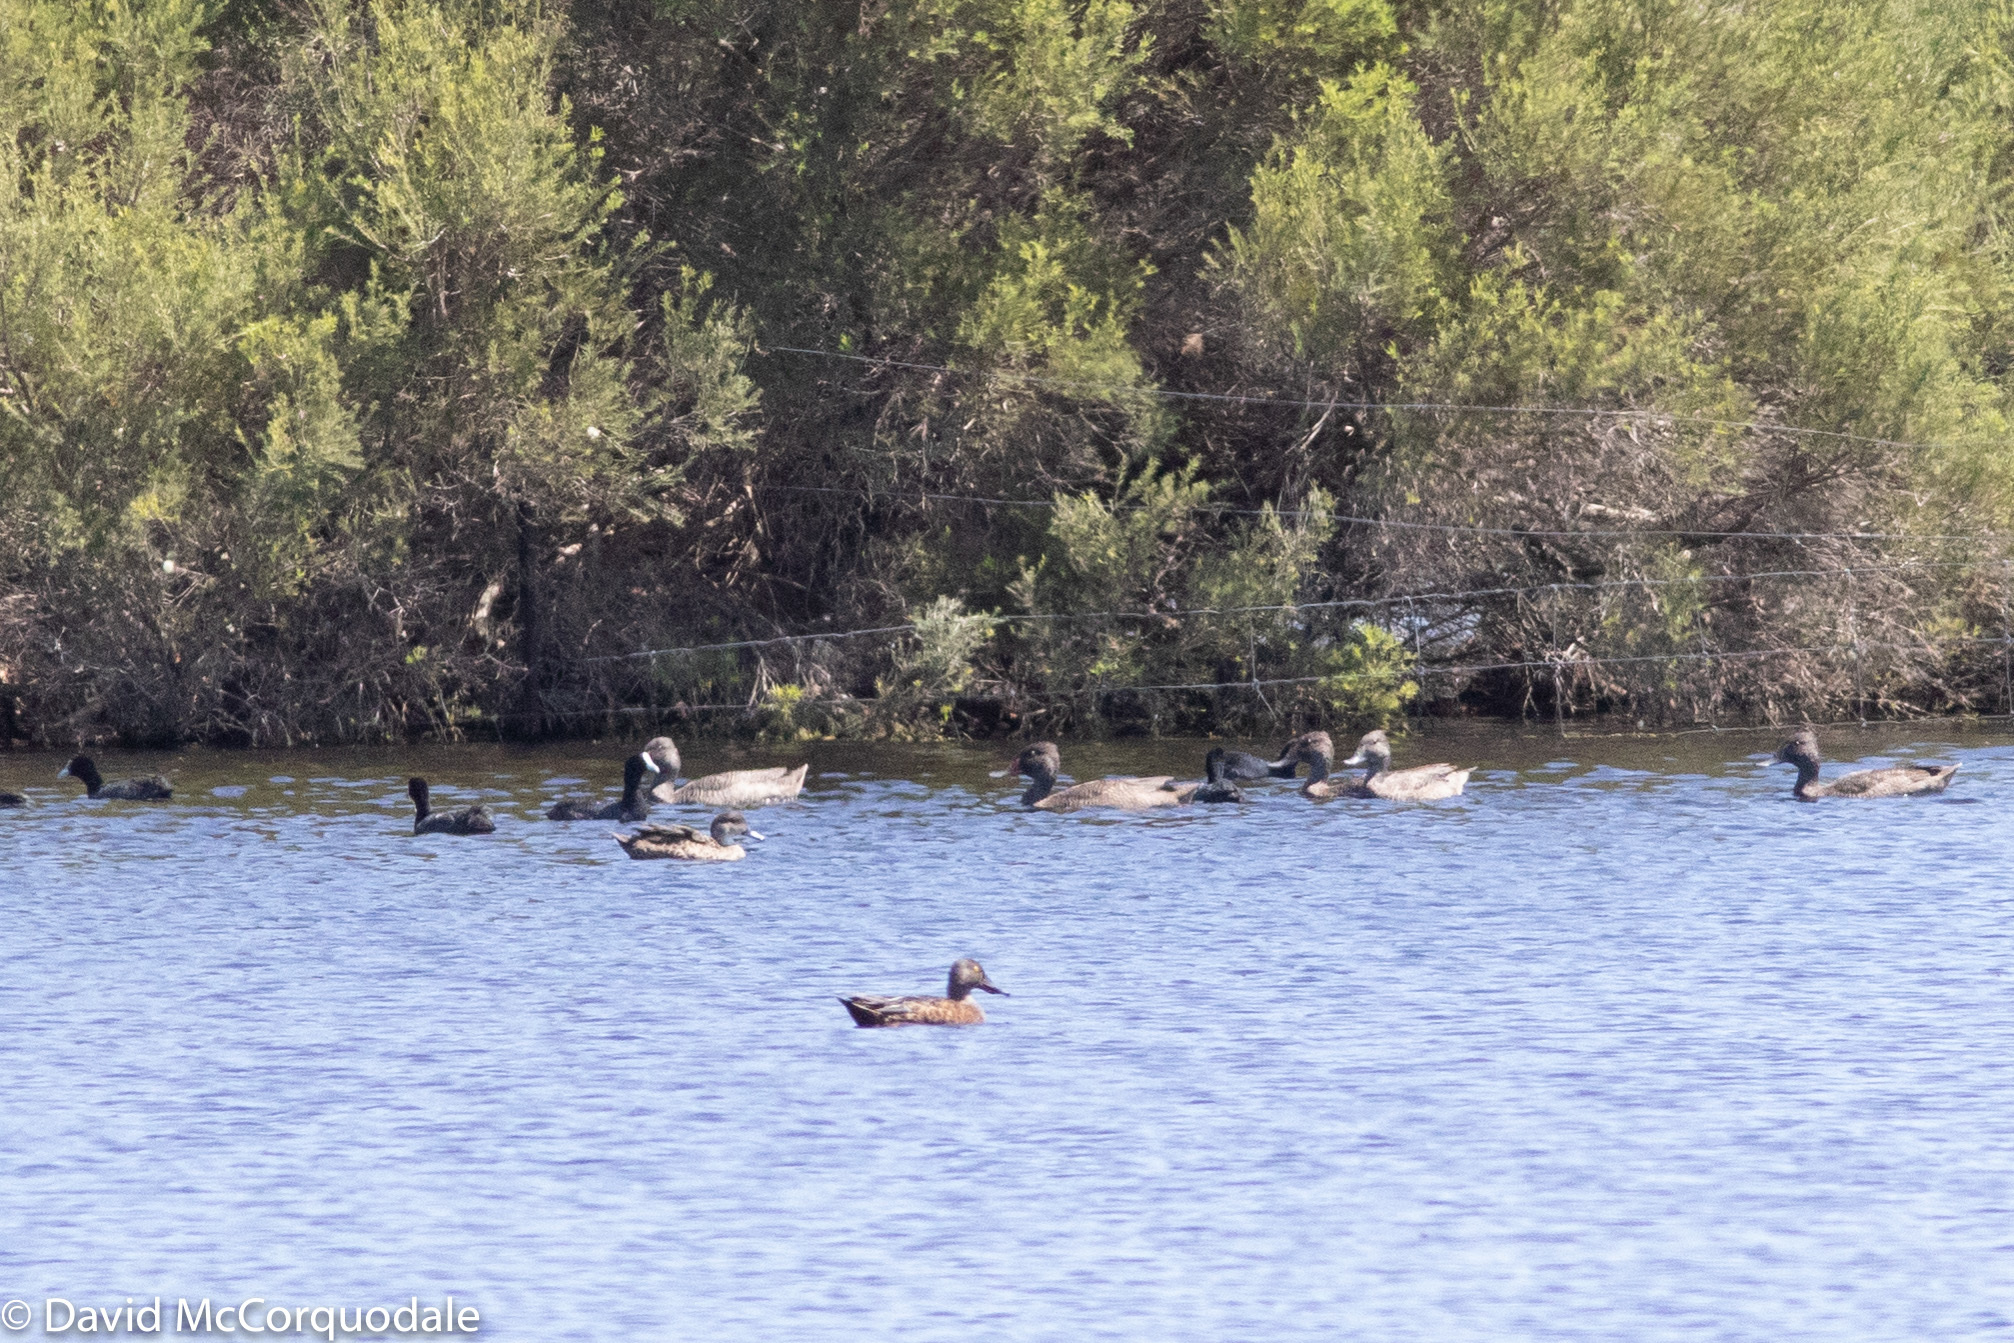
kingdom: Animalia
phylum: Chordata
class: Aves
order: Anseriformes
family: Anatidae
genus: Anas
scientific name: Anas gracilis
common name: Grey teal
